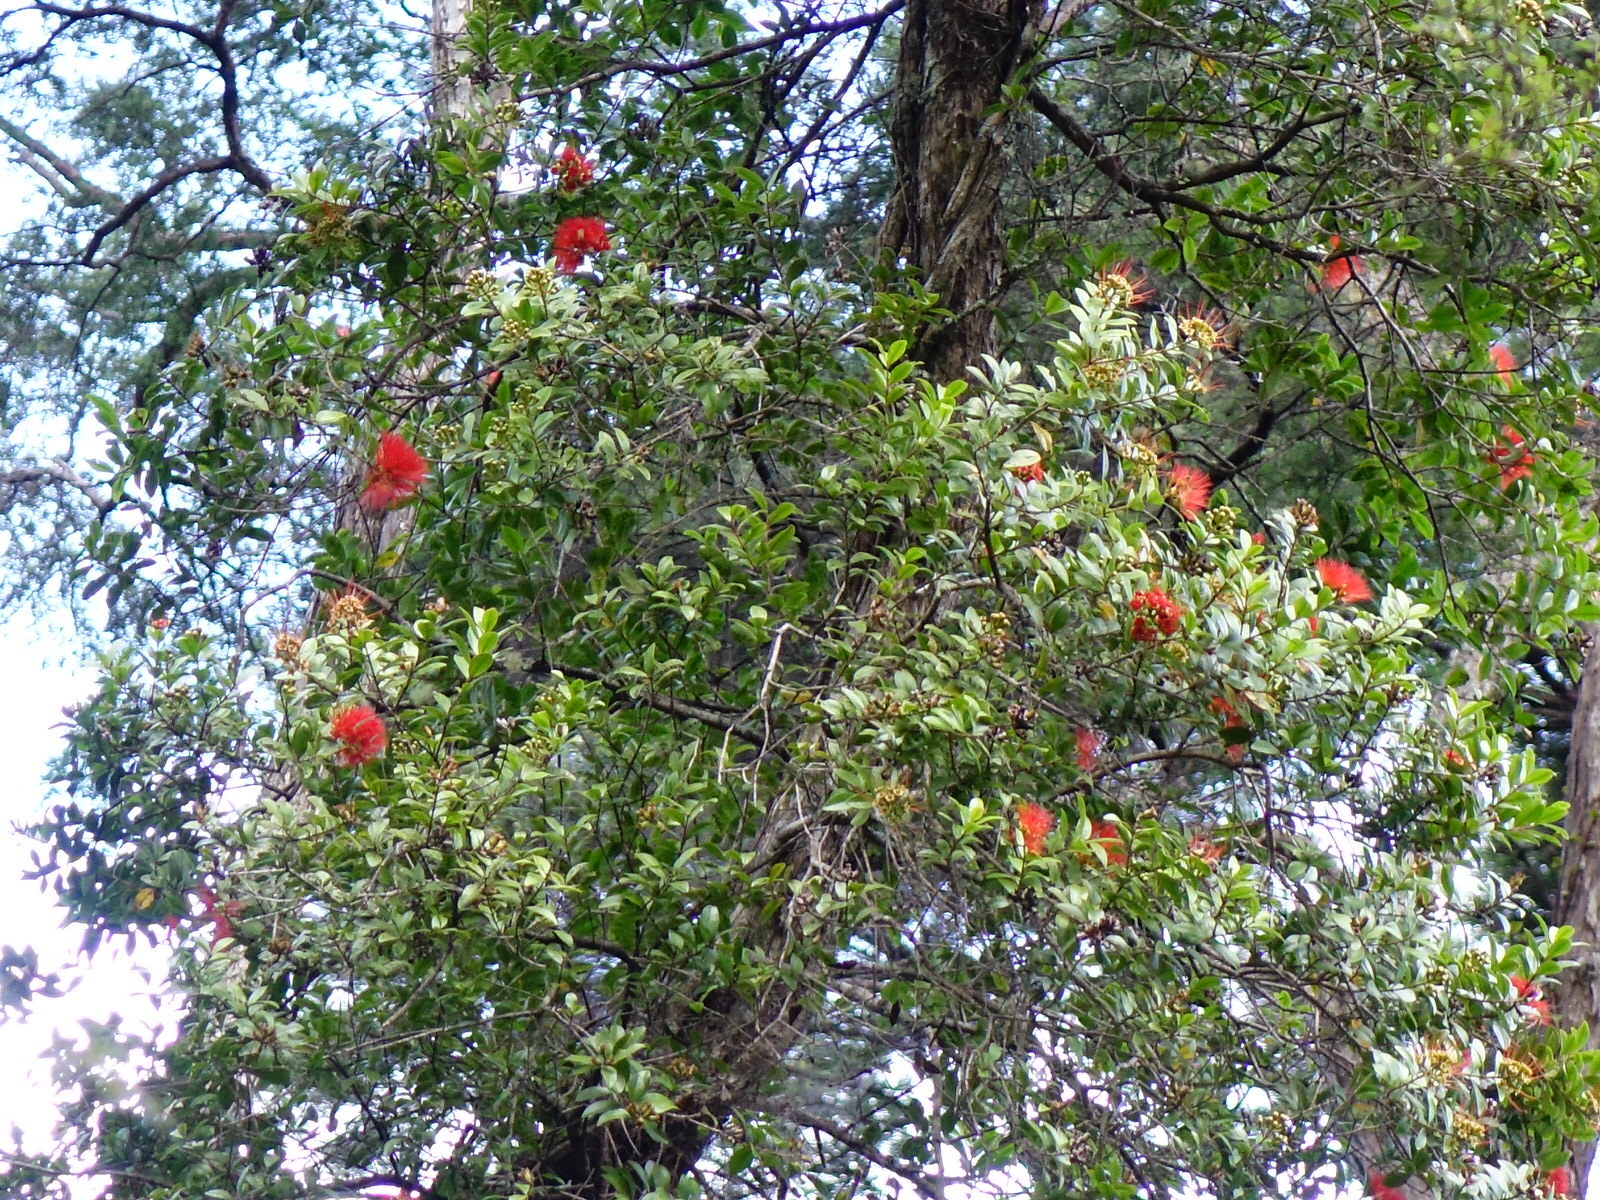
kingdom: Plantae
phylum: Tracheophyta
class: Magnoliopsida
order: Myrtales
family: Myrtaceae
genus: Metrosideros
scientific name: Metrosideros fulgens
